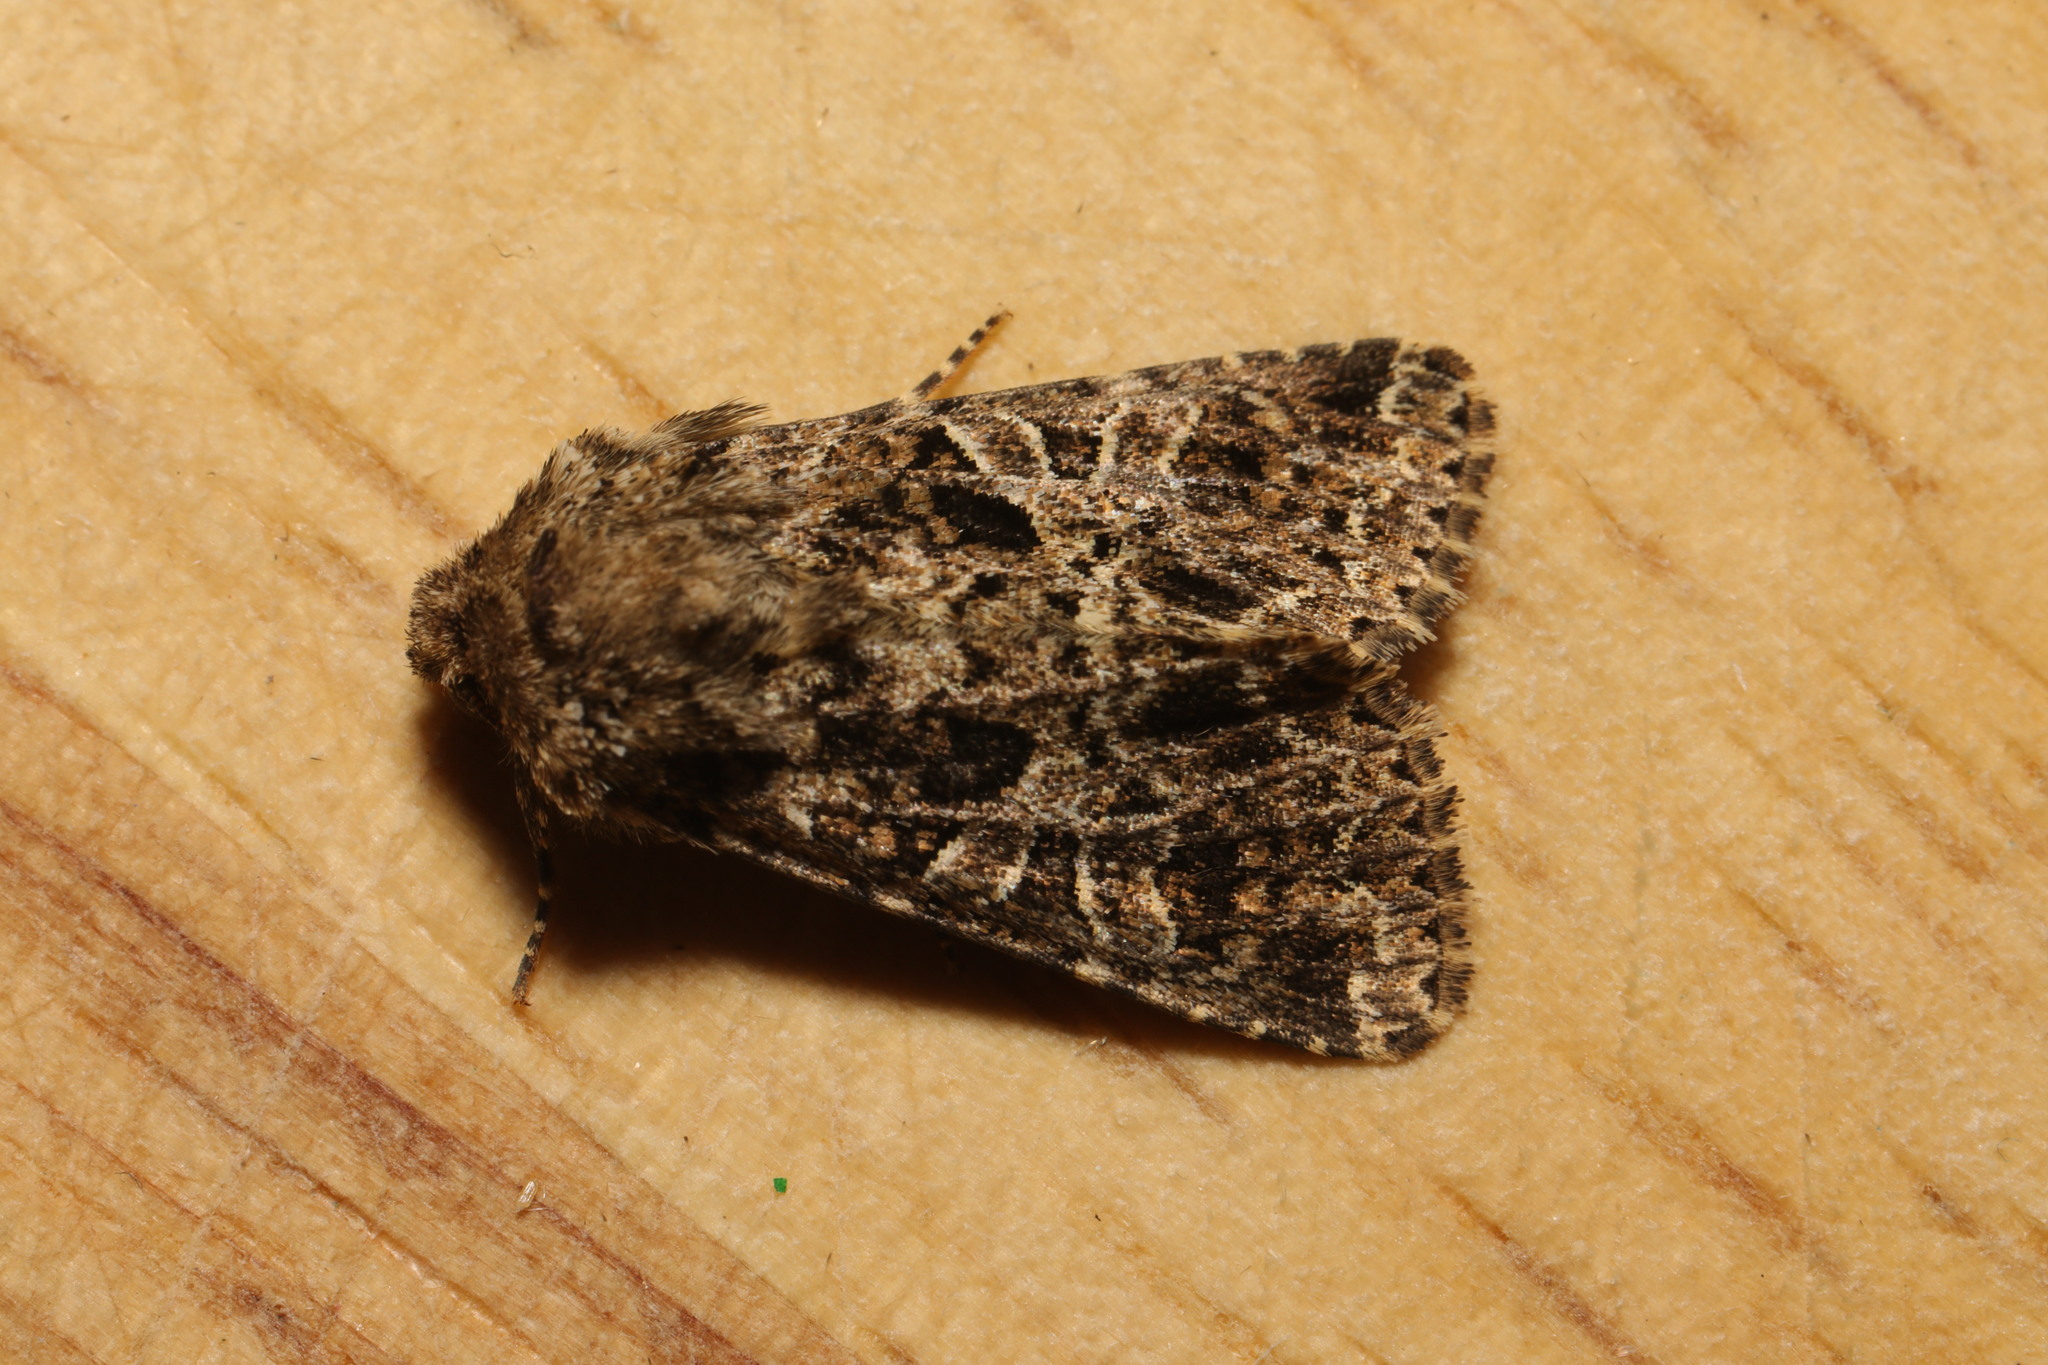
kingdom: Animalia
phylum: Arthropoda
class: Insecta
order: Lepidoptera
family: Noctuidae
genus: Hadena
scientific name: Hadena bicruris
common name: Lychnis
